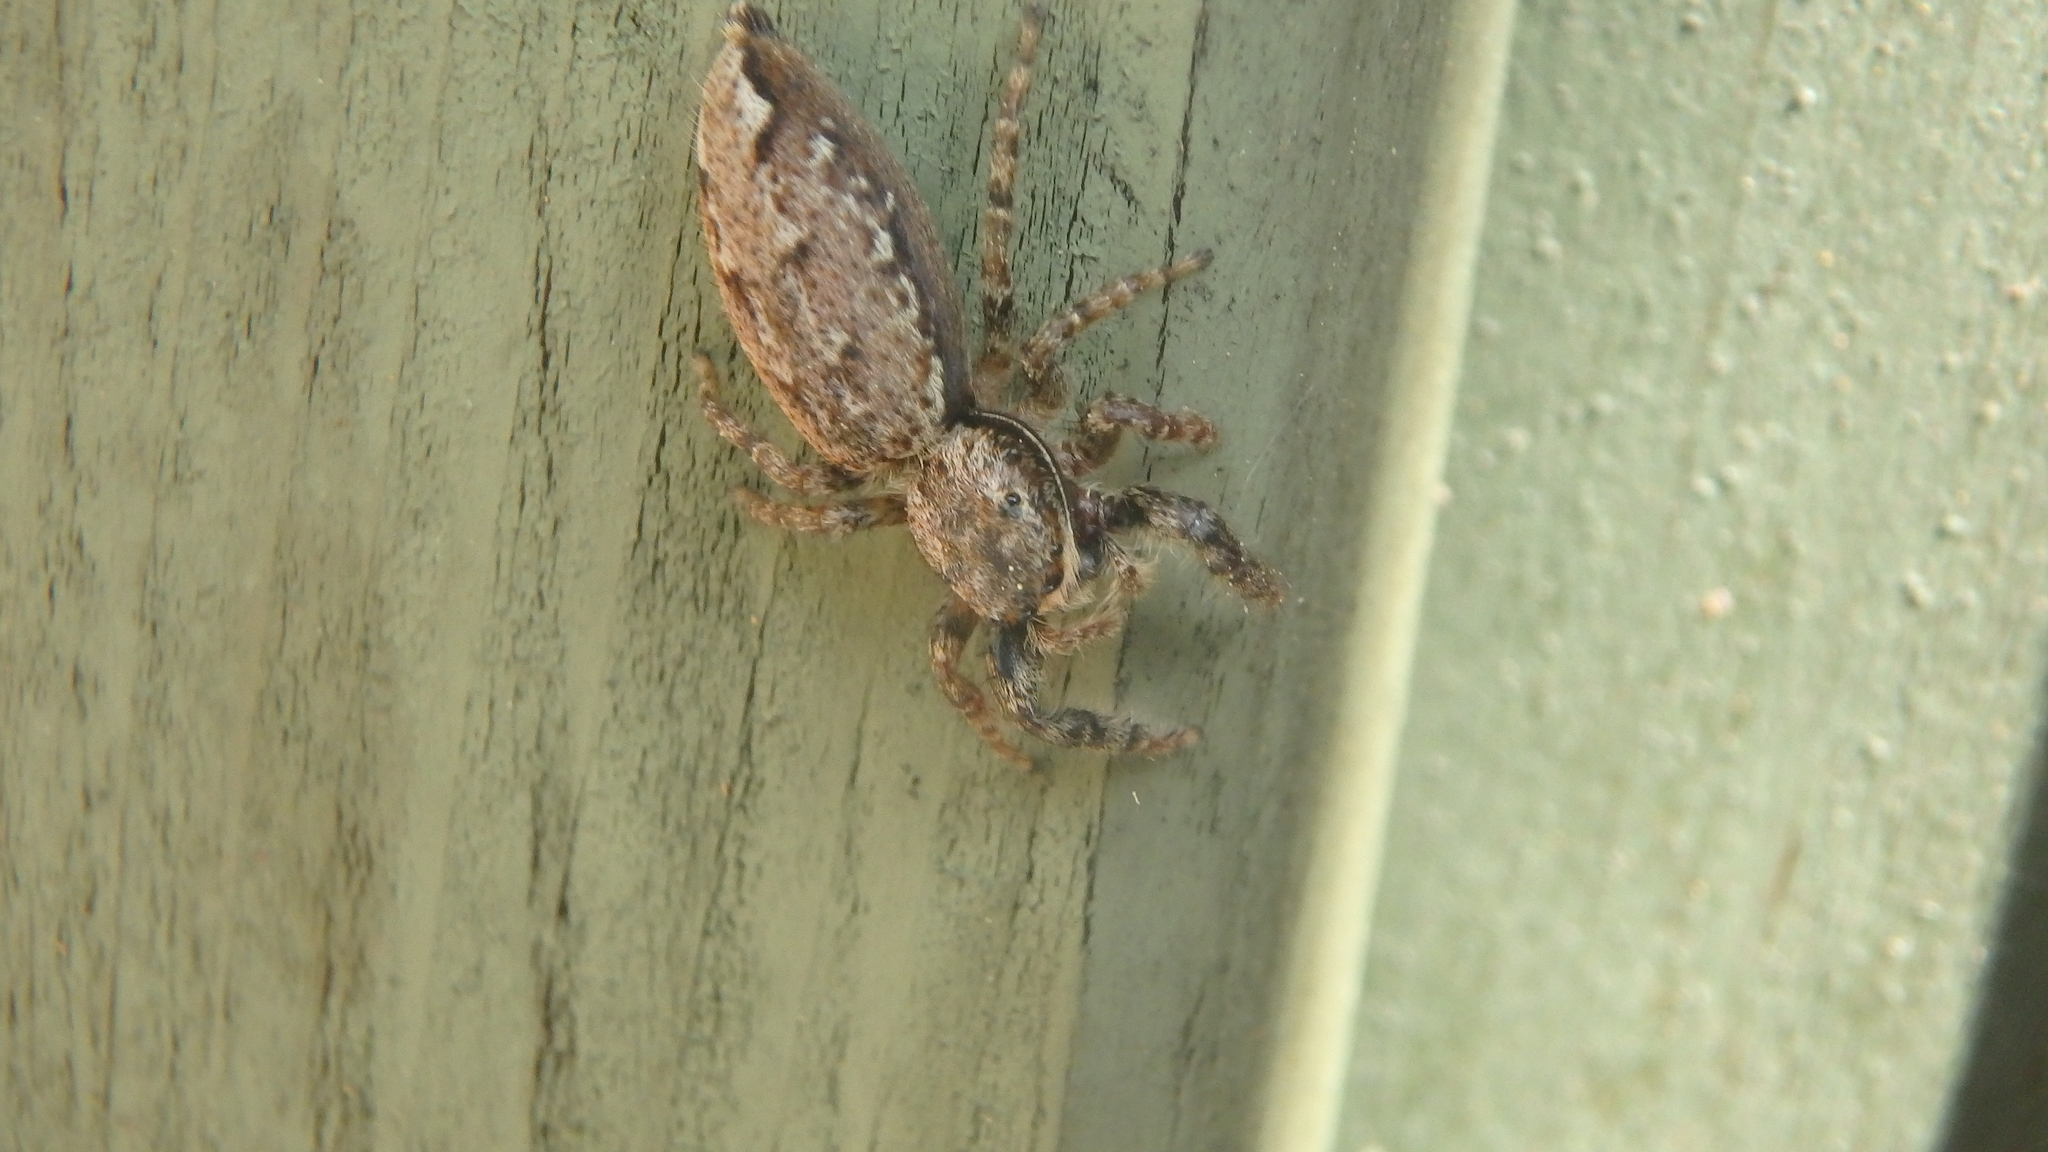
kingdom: Animalia
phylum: Arthropoda
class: Arachnida
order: Araneae
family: Salticidae
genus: Marpissa
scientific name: Marpissa muscosa
